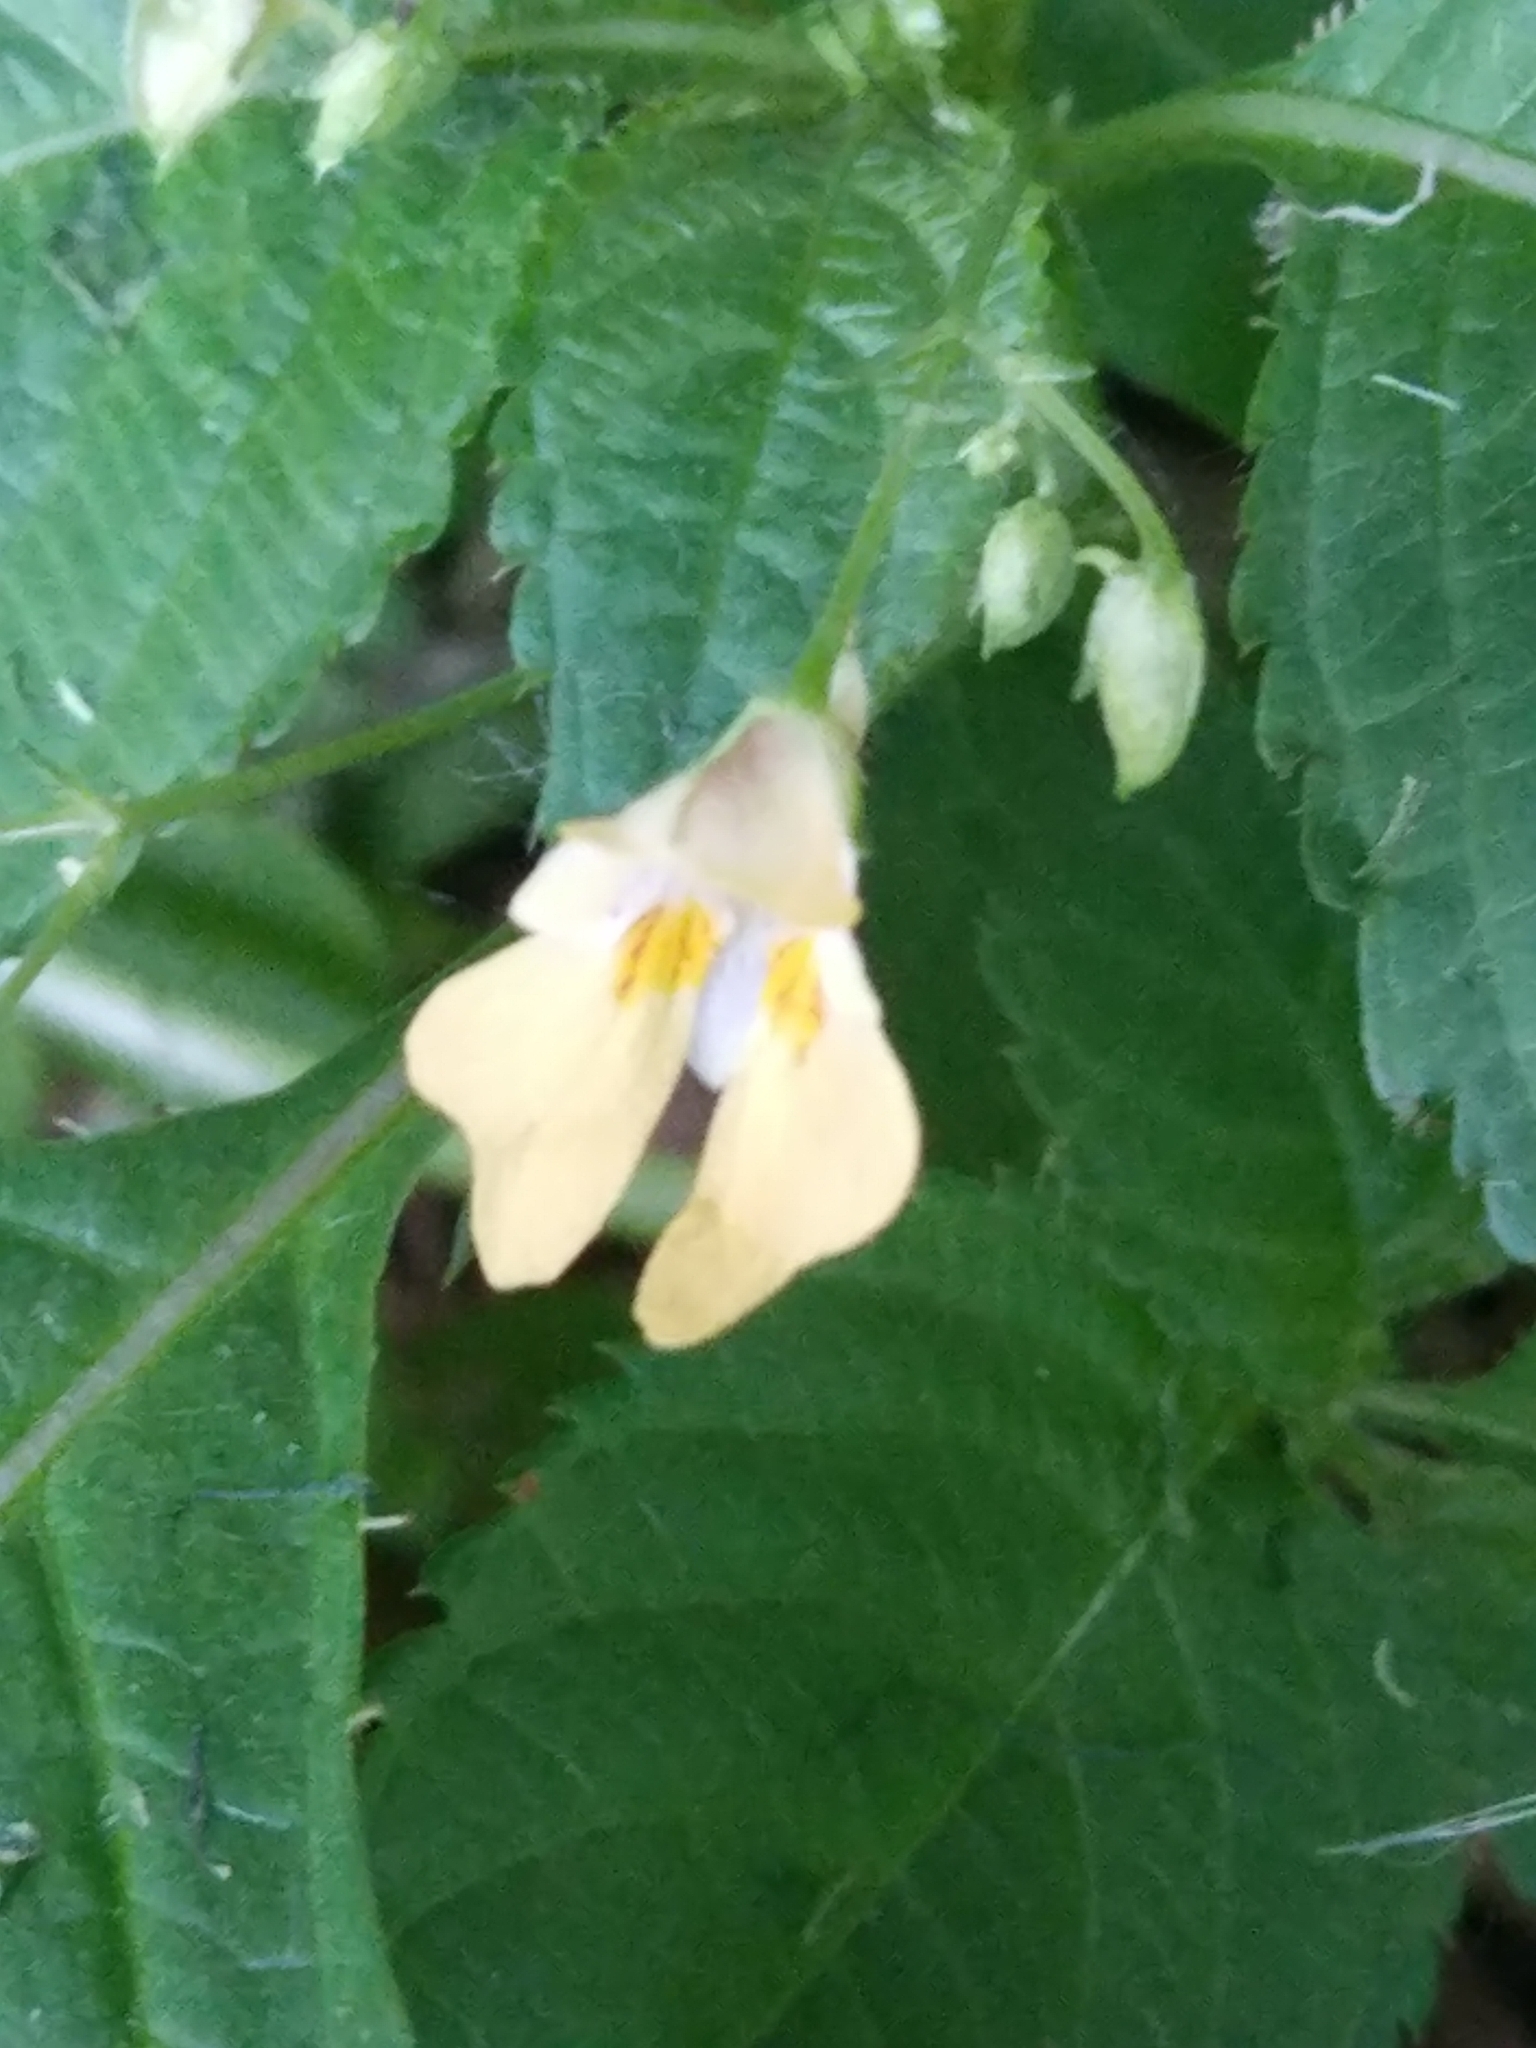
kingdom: Plantae
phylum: Tracheophyta
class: Magnoliopsida
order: Ericales
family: Balsaminaceae
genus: Impatiens
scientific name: Impatiens parviflora
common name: Small balsam
